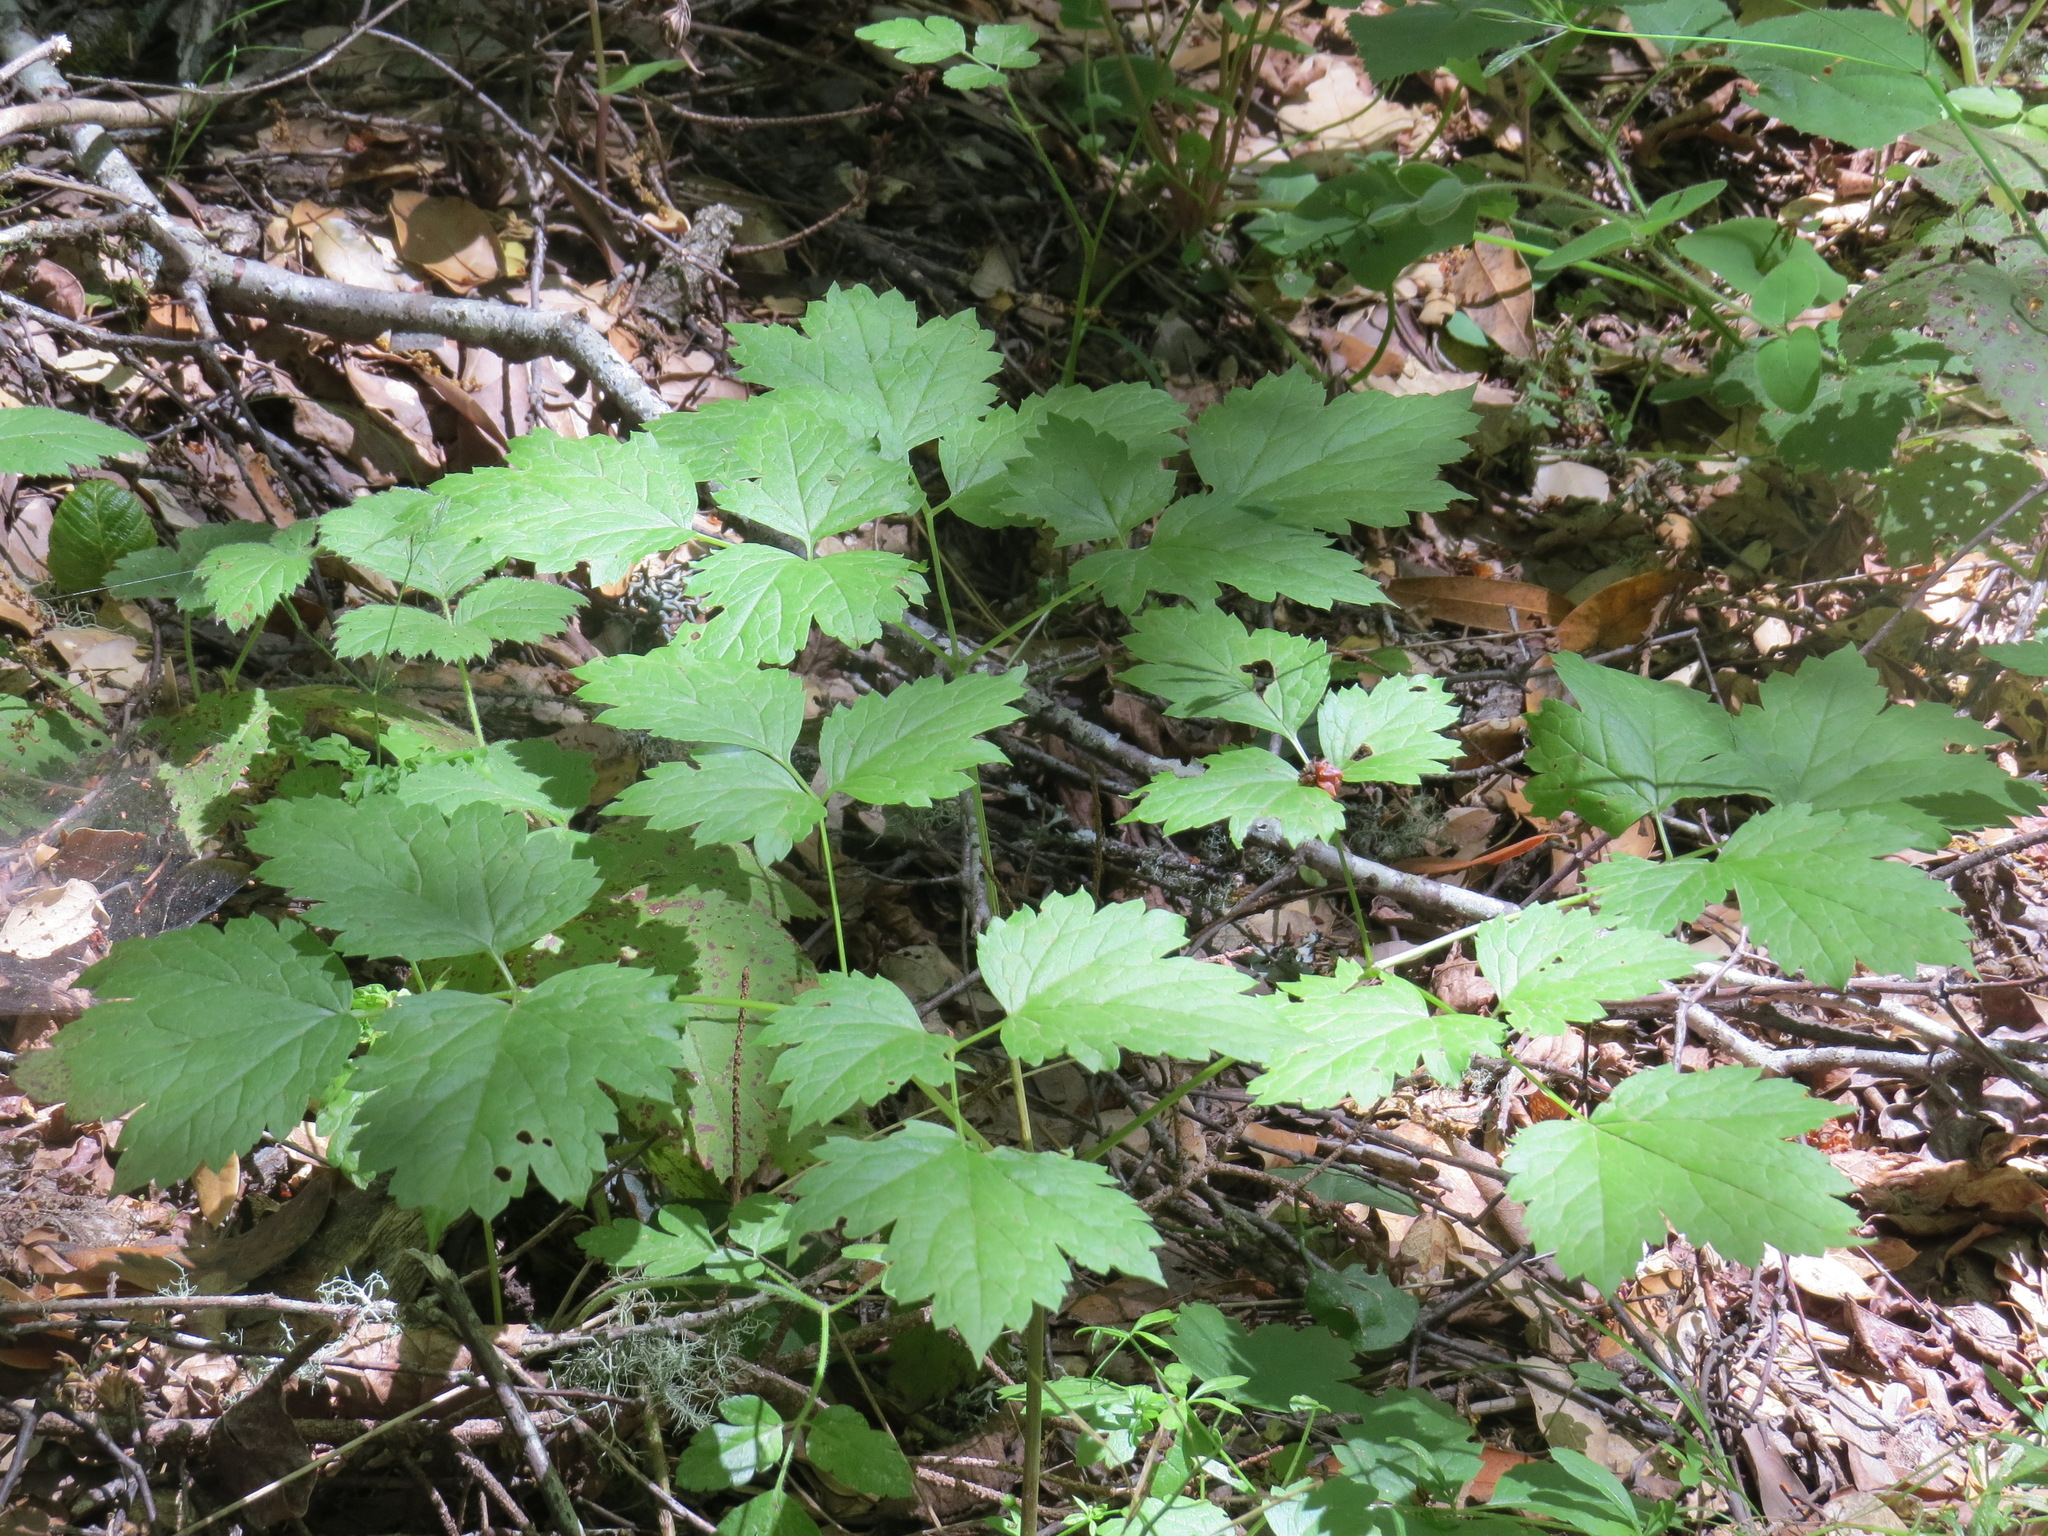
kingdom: Plantae
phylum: Tracheophyta
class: Magnoliopsida
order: Ranunculales
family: Ranunculaceae
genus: Actaea
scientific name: Actaea rubra
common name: Red baneberry
